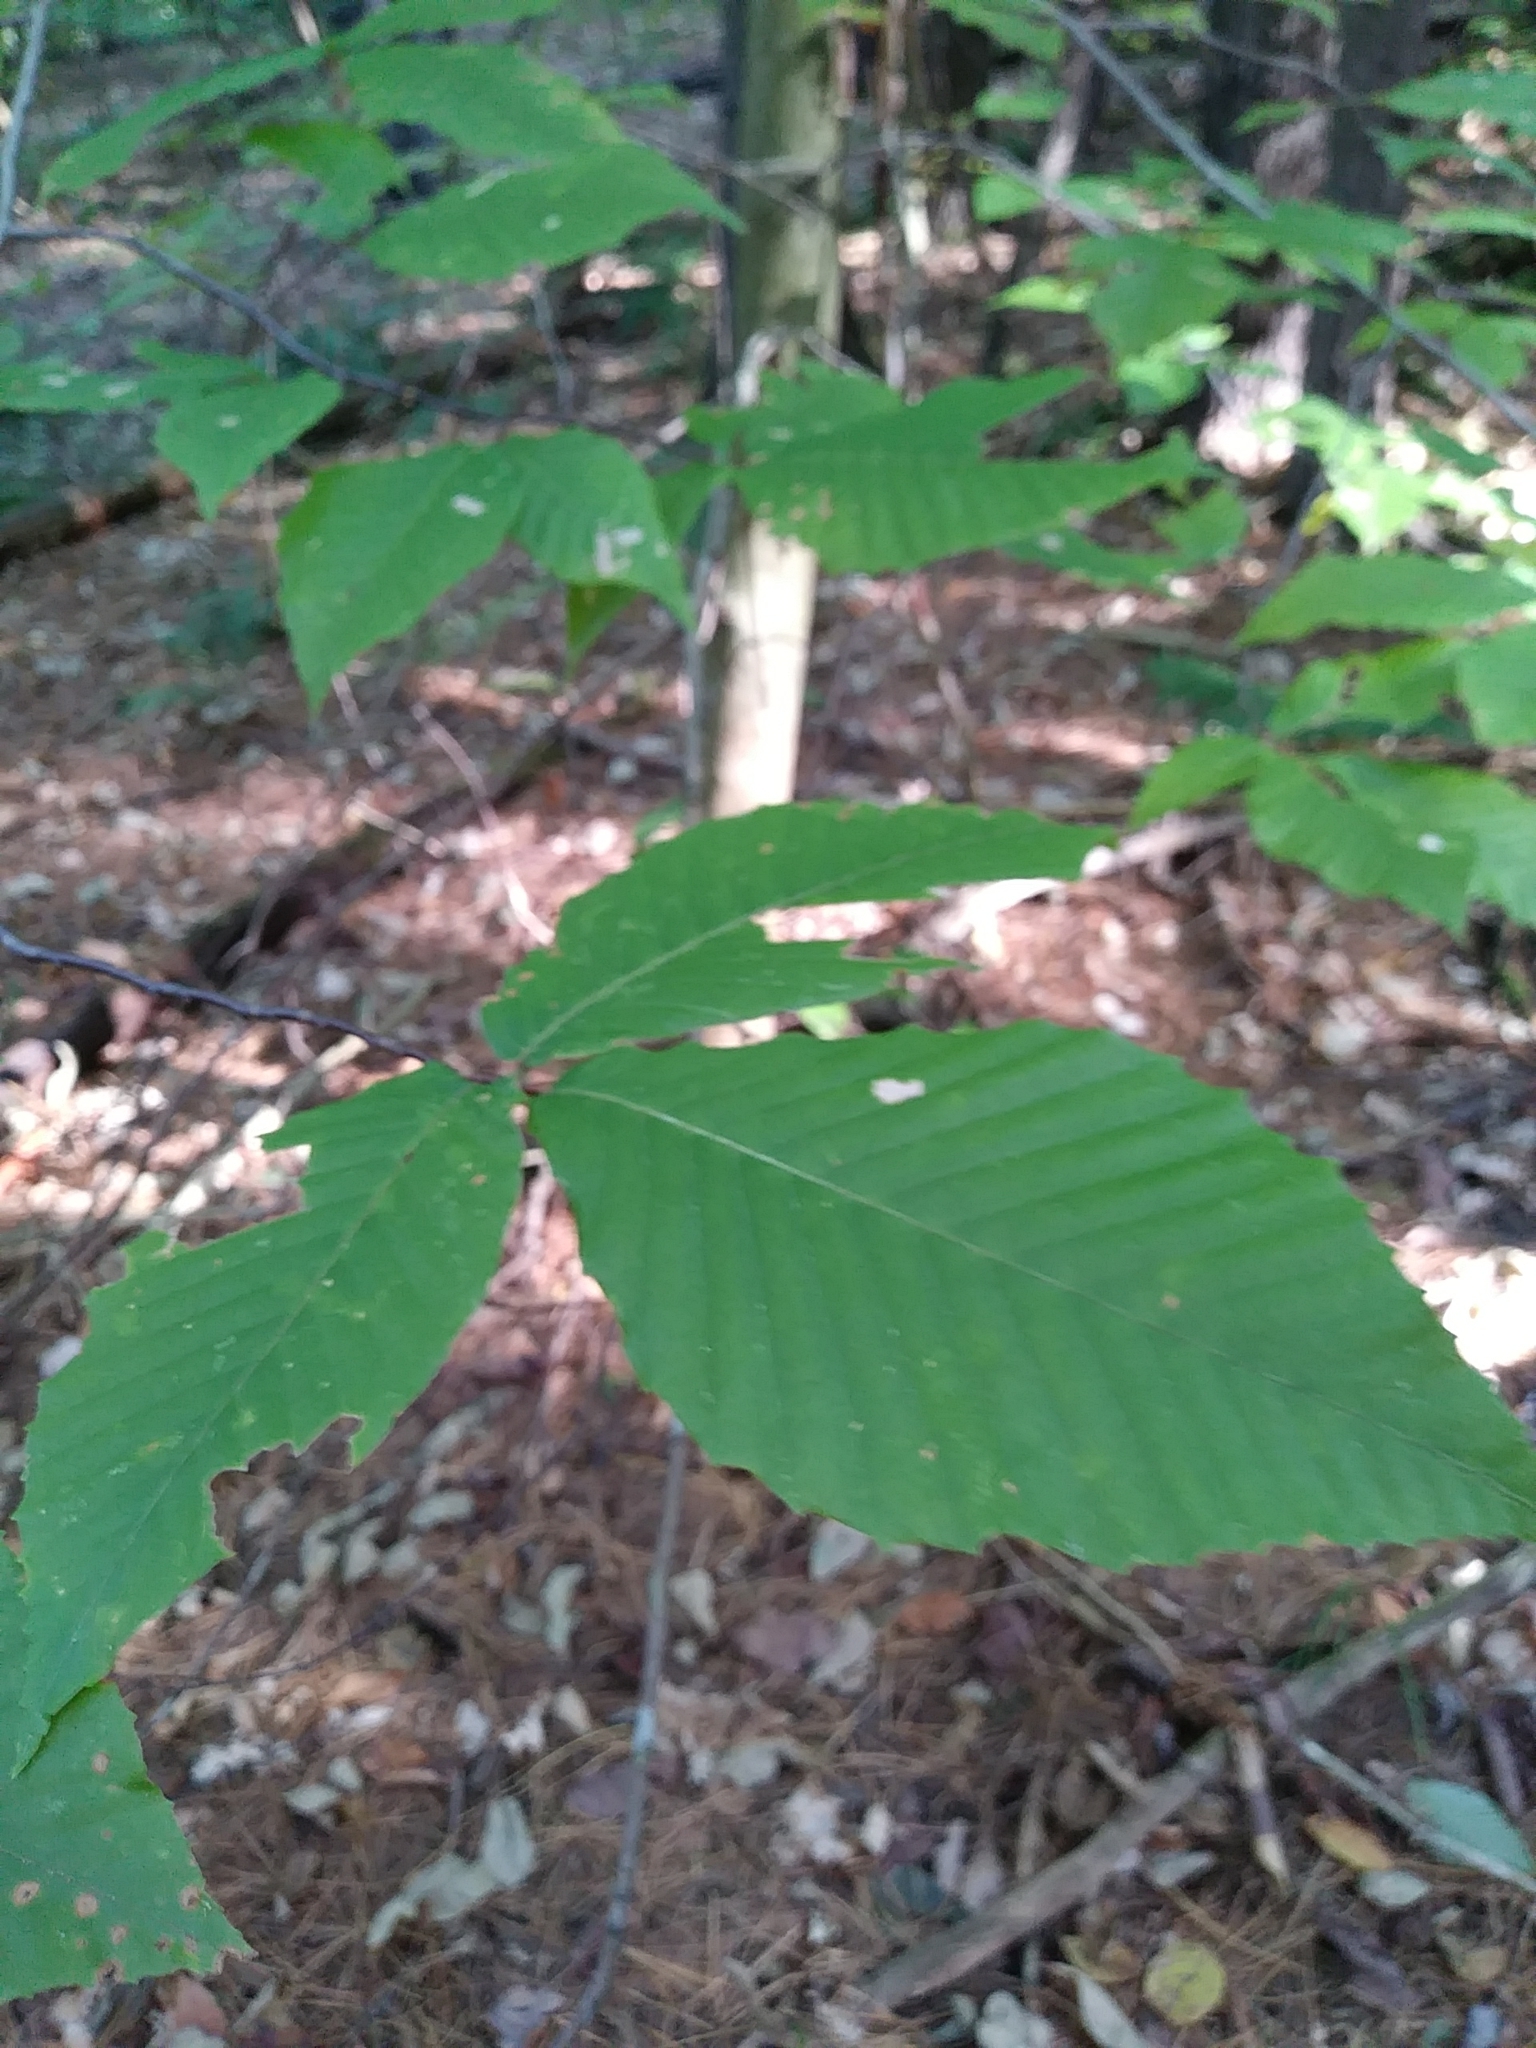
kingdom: Plantae
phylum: Tracheophyta
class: Magnoliopsida
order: Fagales
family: Fagaceae
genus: Fagus
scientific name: Fagus grandifolia
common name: American beech
